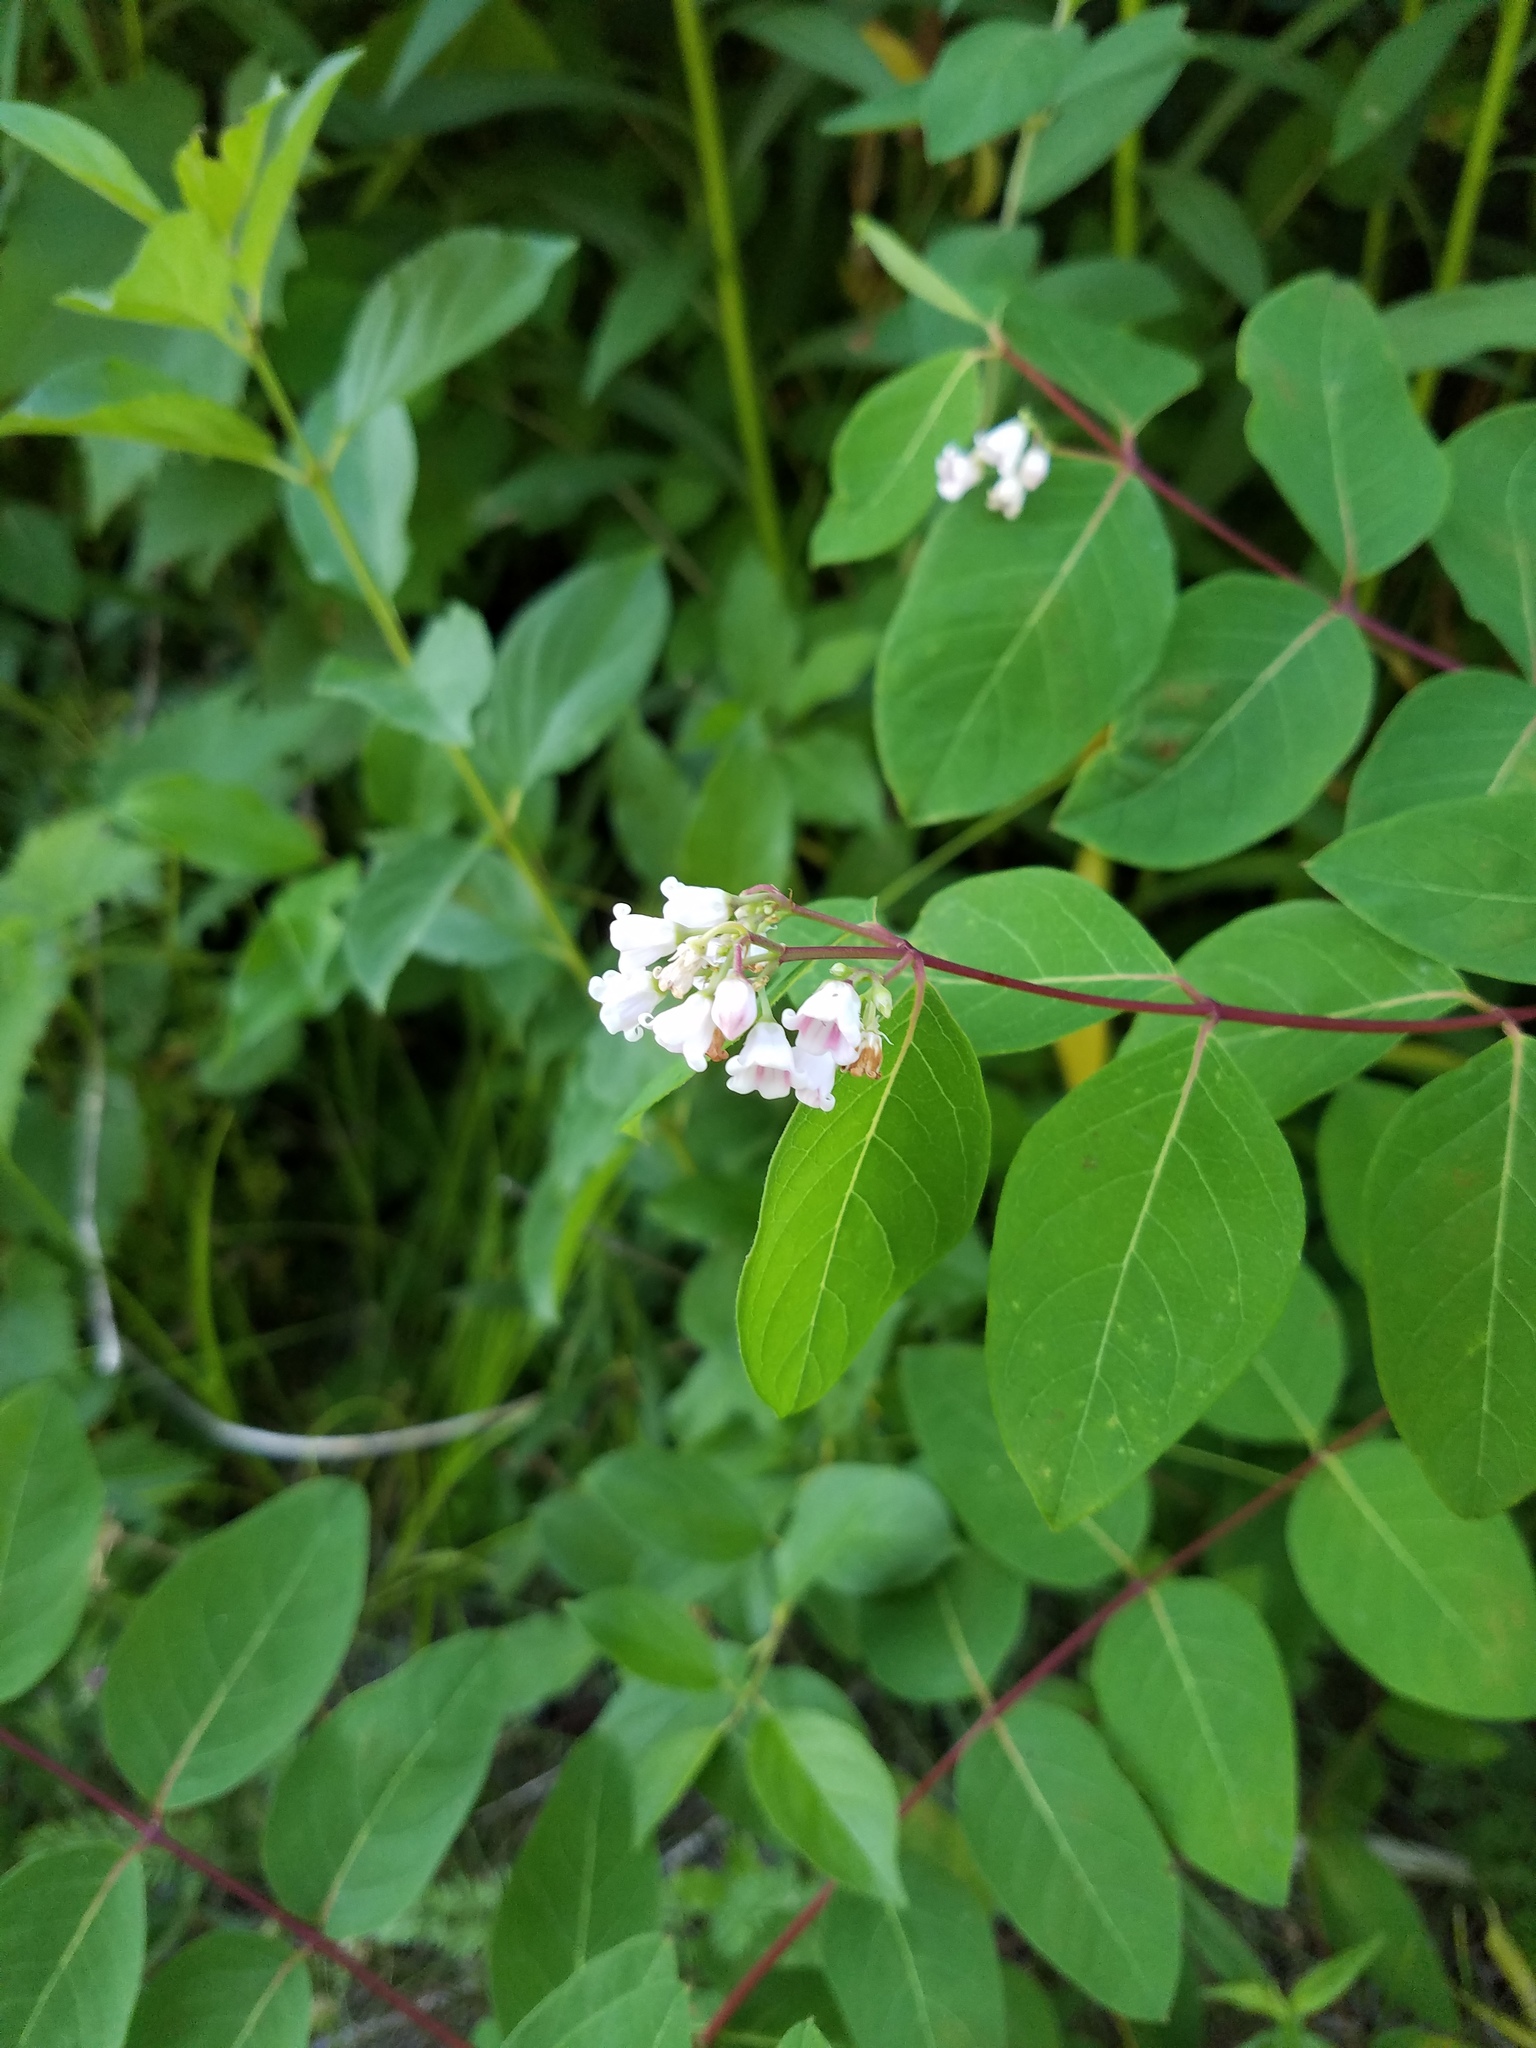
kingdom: Plantae
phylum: Tracheophyta
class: Magnoliopsida
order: Gentianales
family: Apocynaceae
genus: Apocynum
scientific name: Apocynum androsaemifolium
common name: Spreading dogbane
